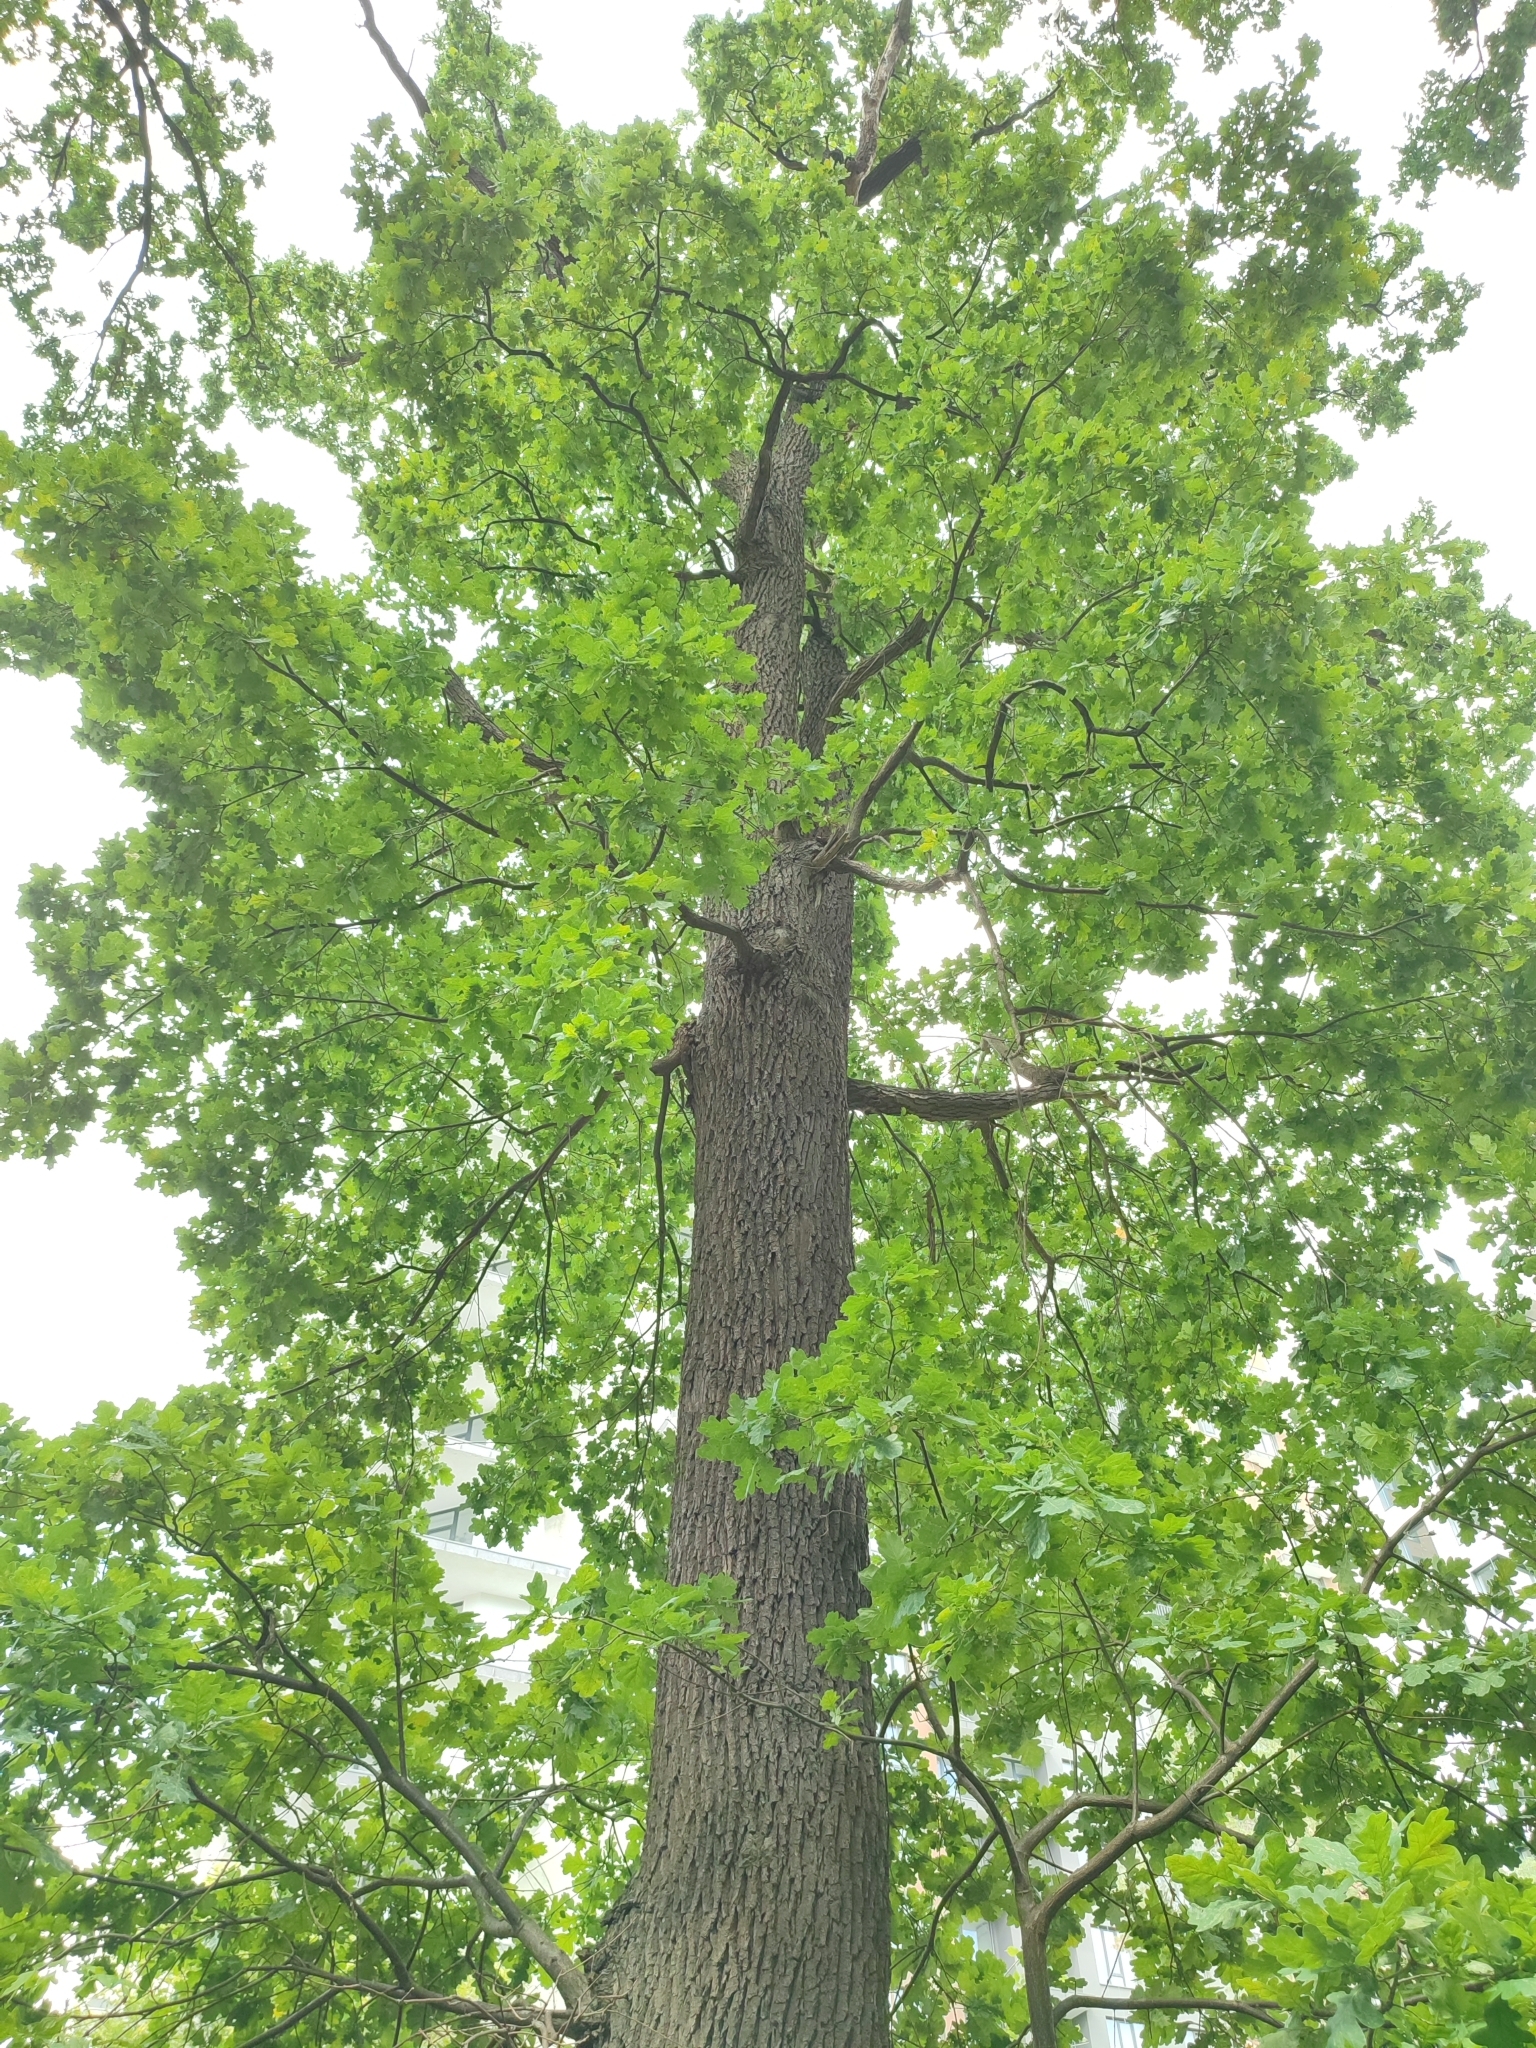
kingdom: Plantae
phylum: Tracheophyta
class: Magnoliopsida
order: Fagales
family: Fagaceae
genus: Quercus
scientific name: Quercus robur
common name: Pedunculate oak
